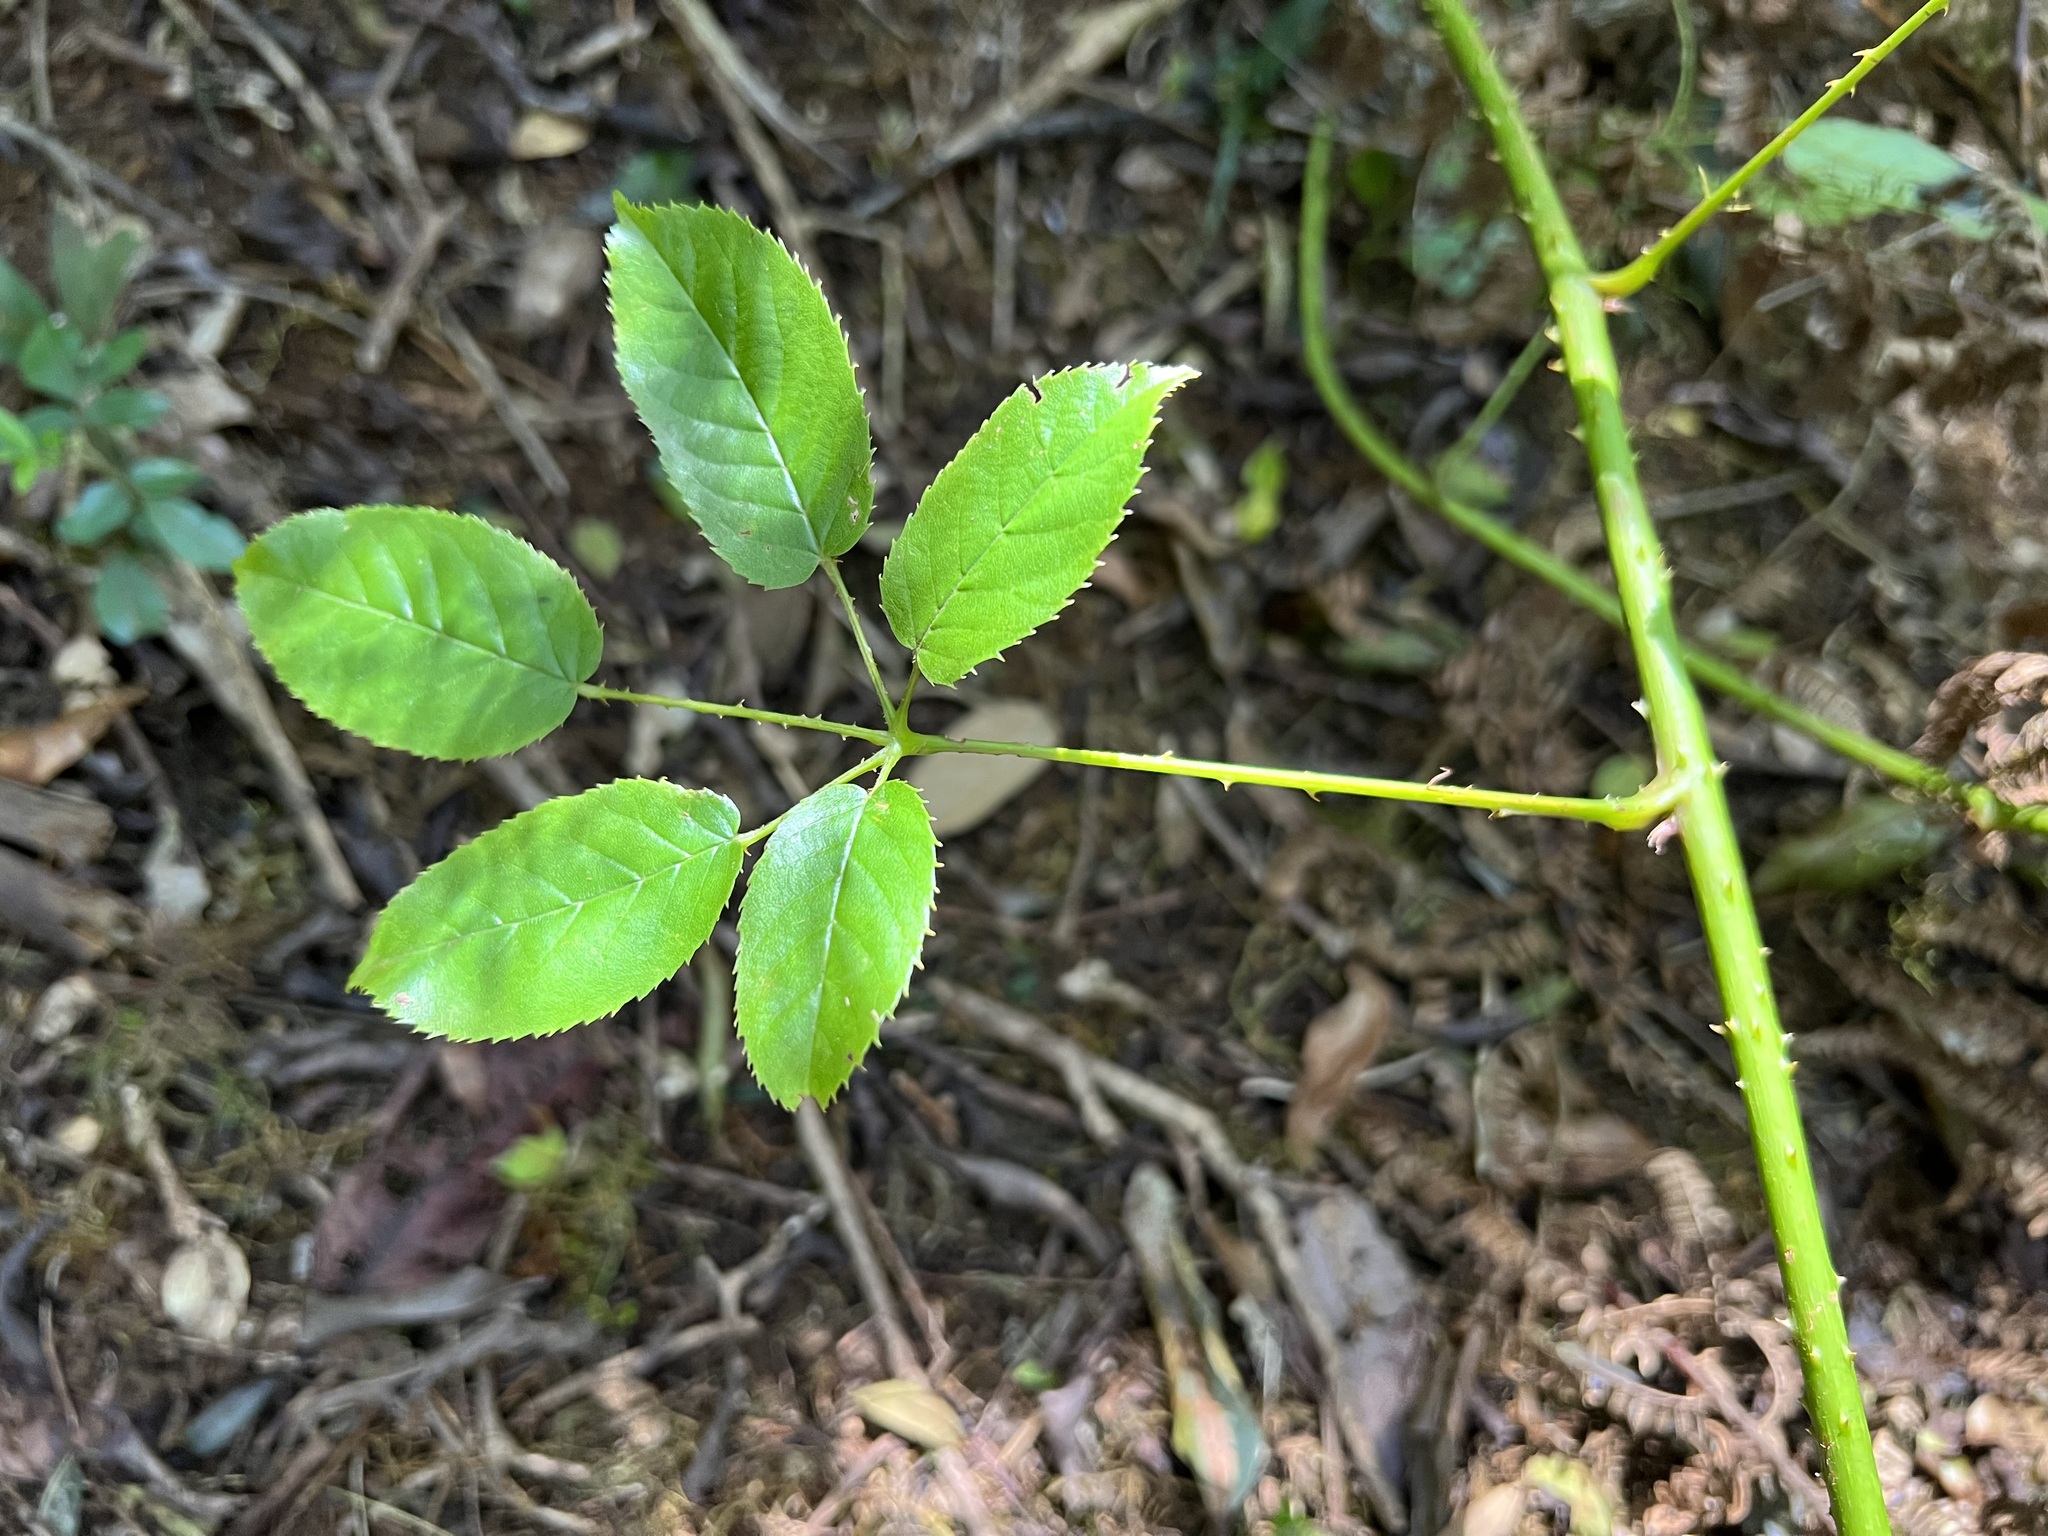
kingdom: Plantae
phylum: Tracheophyta
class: Magnoliopsida
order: Rosales
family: Rosaceae
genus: Rubus
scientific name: Rubus nebulosus
